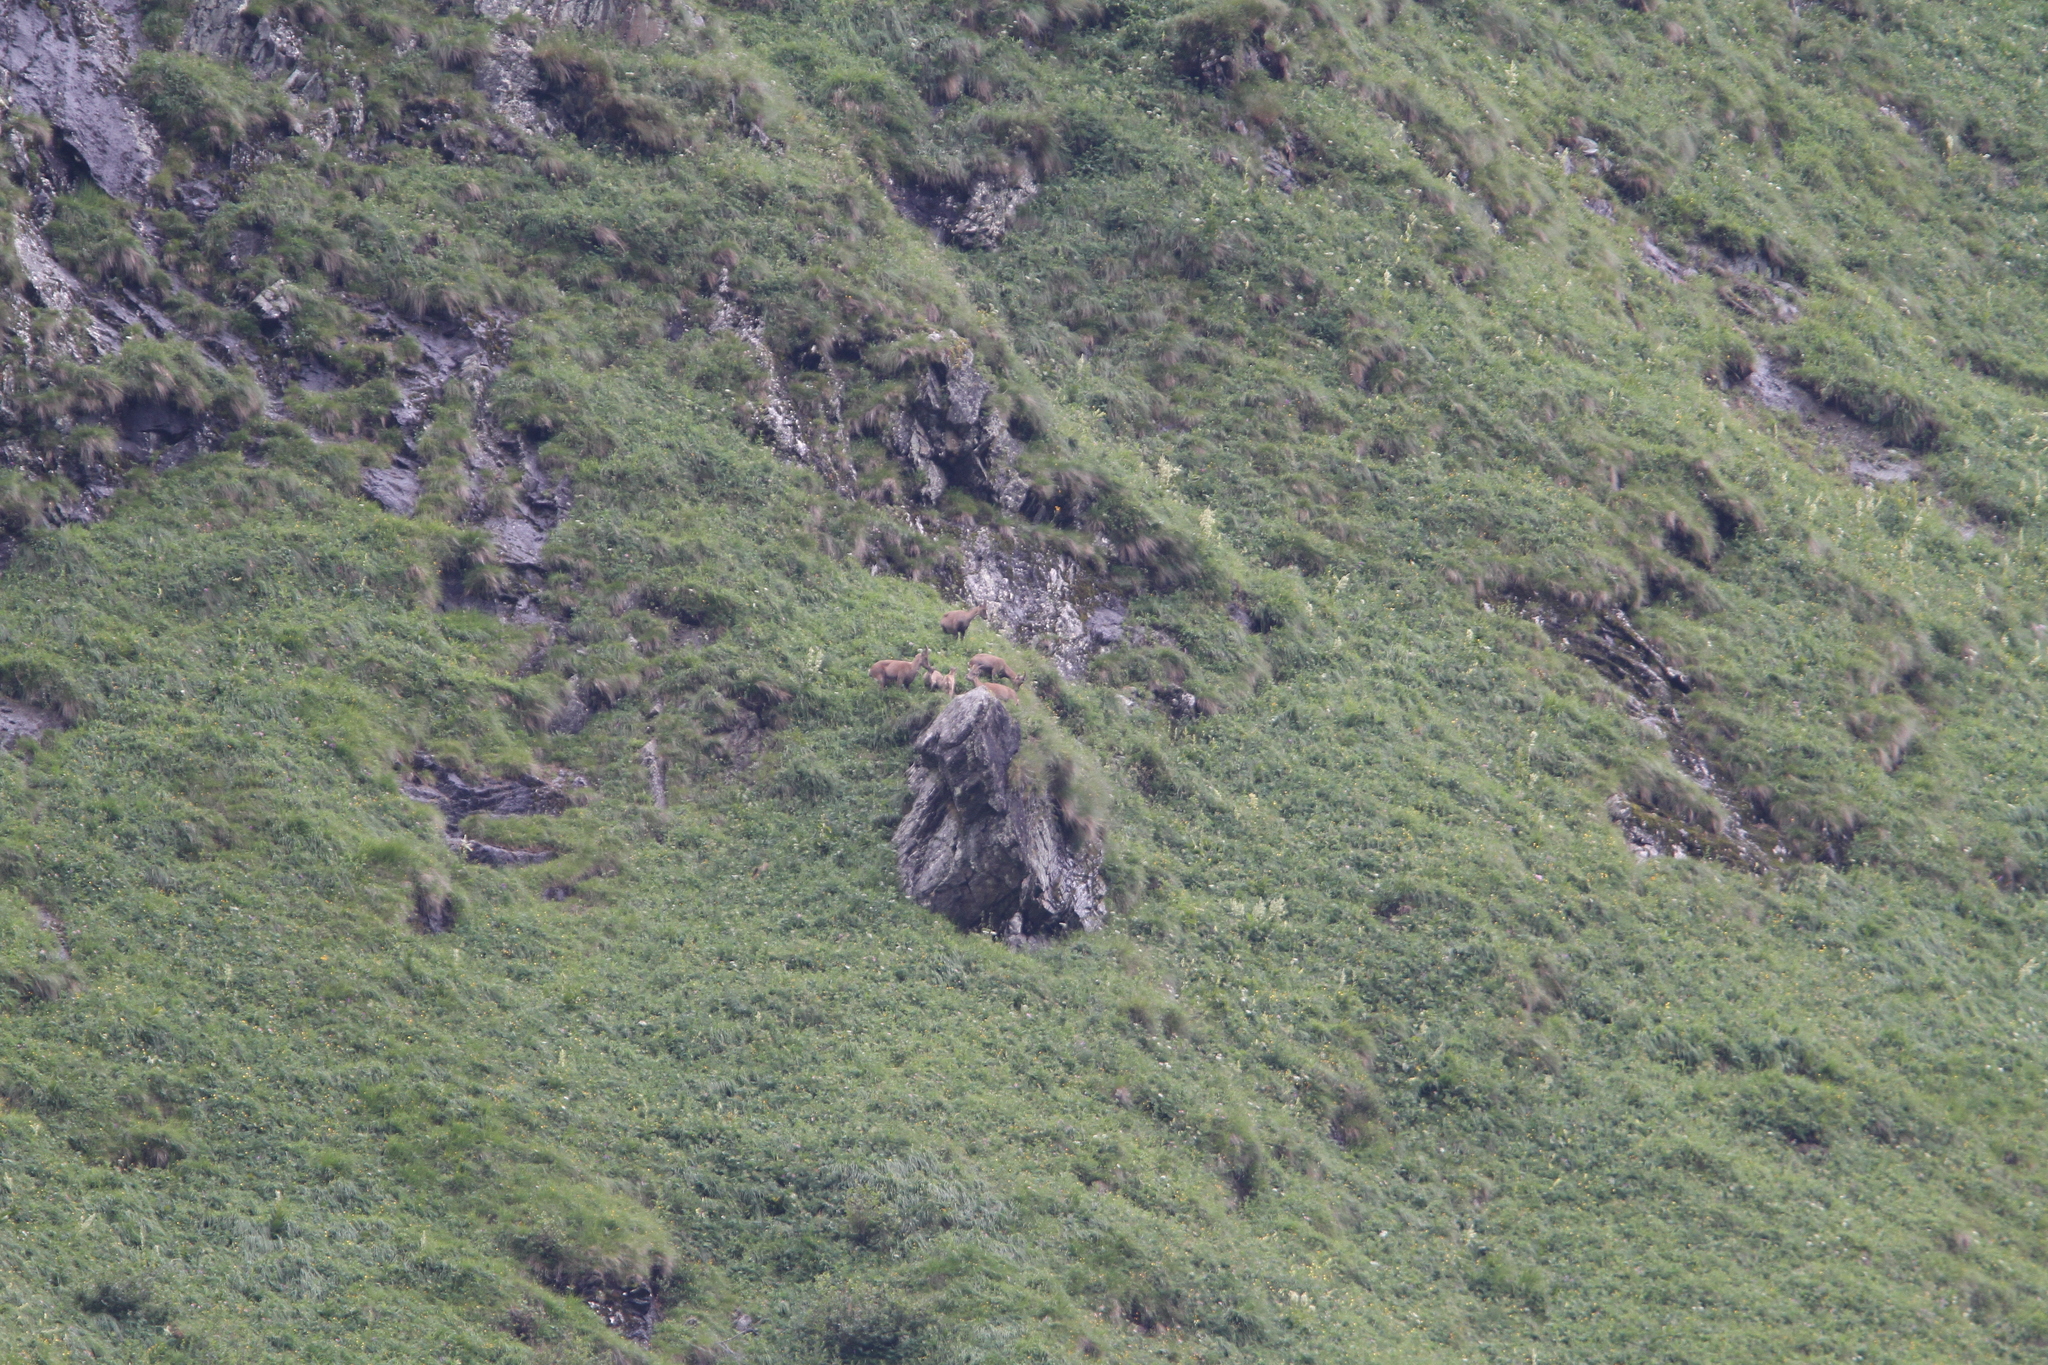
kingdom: Animalia
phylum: Chordata
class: Mammalia
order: Artiodactyla
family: Bovidae
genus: Capra
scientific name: Capra ibex
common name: Alpine ibex
